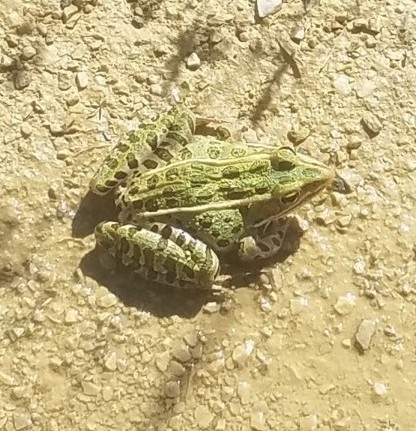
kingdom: Animalia
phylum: Chordata
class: Amphibia
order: Anura
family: Ranidae
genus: Lithobates
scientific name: Lithobates pipiens
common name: Northern leopard frog
